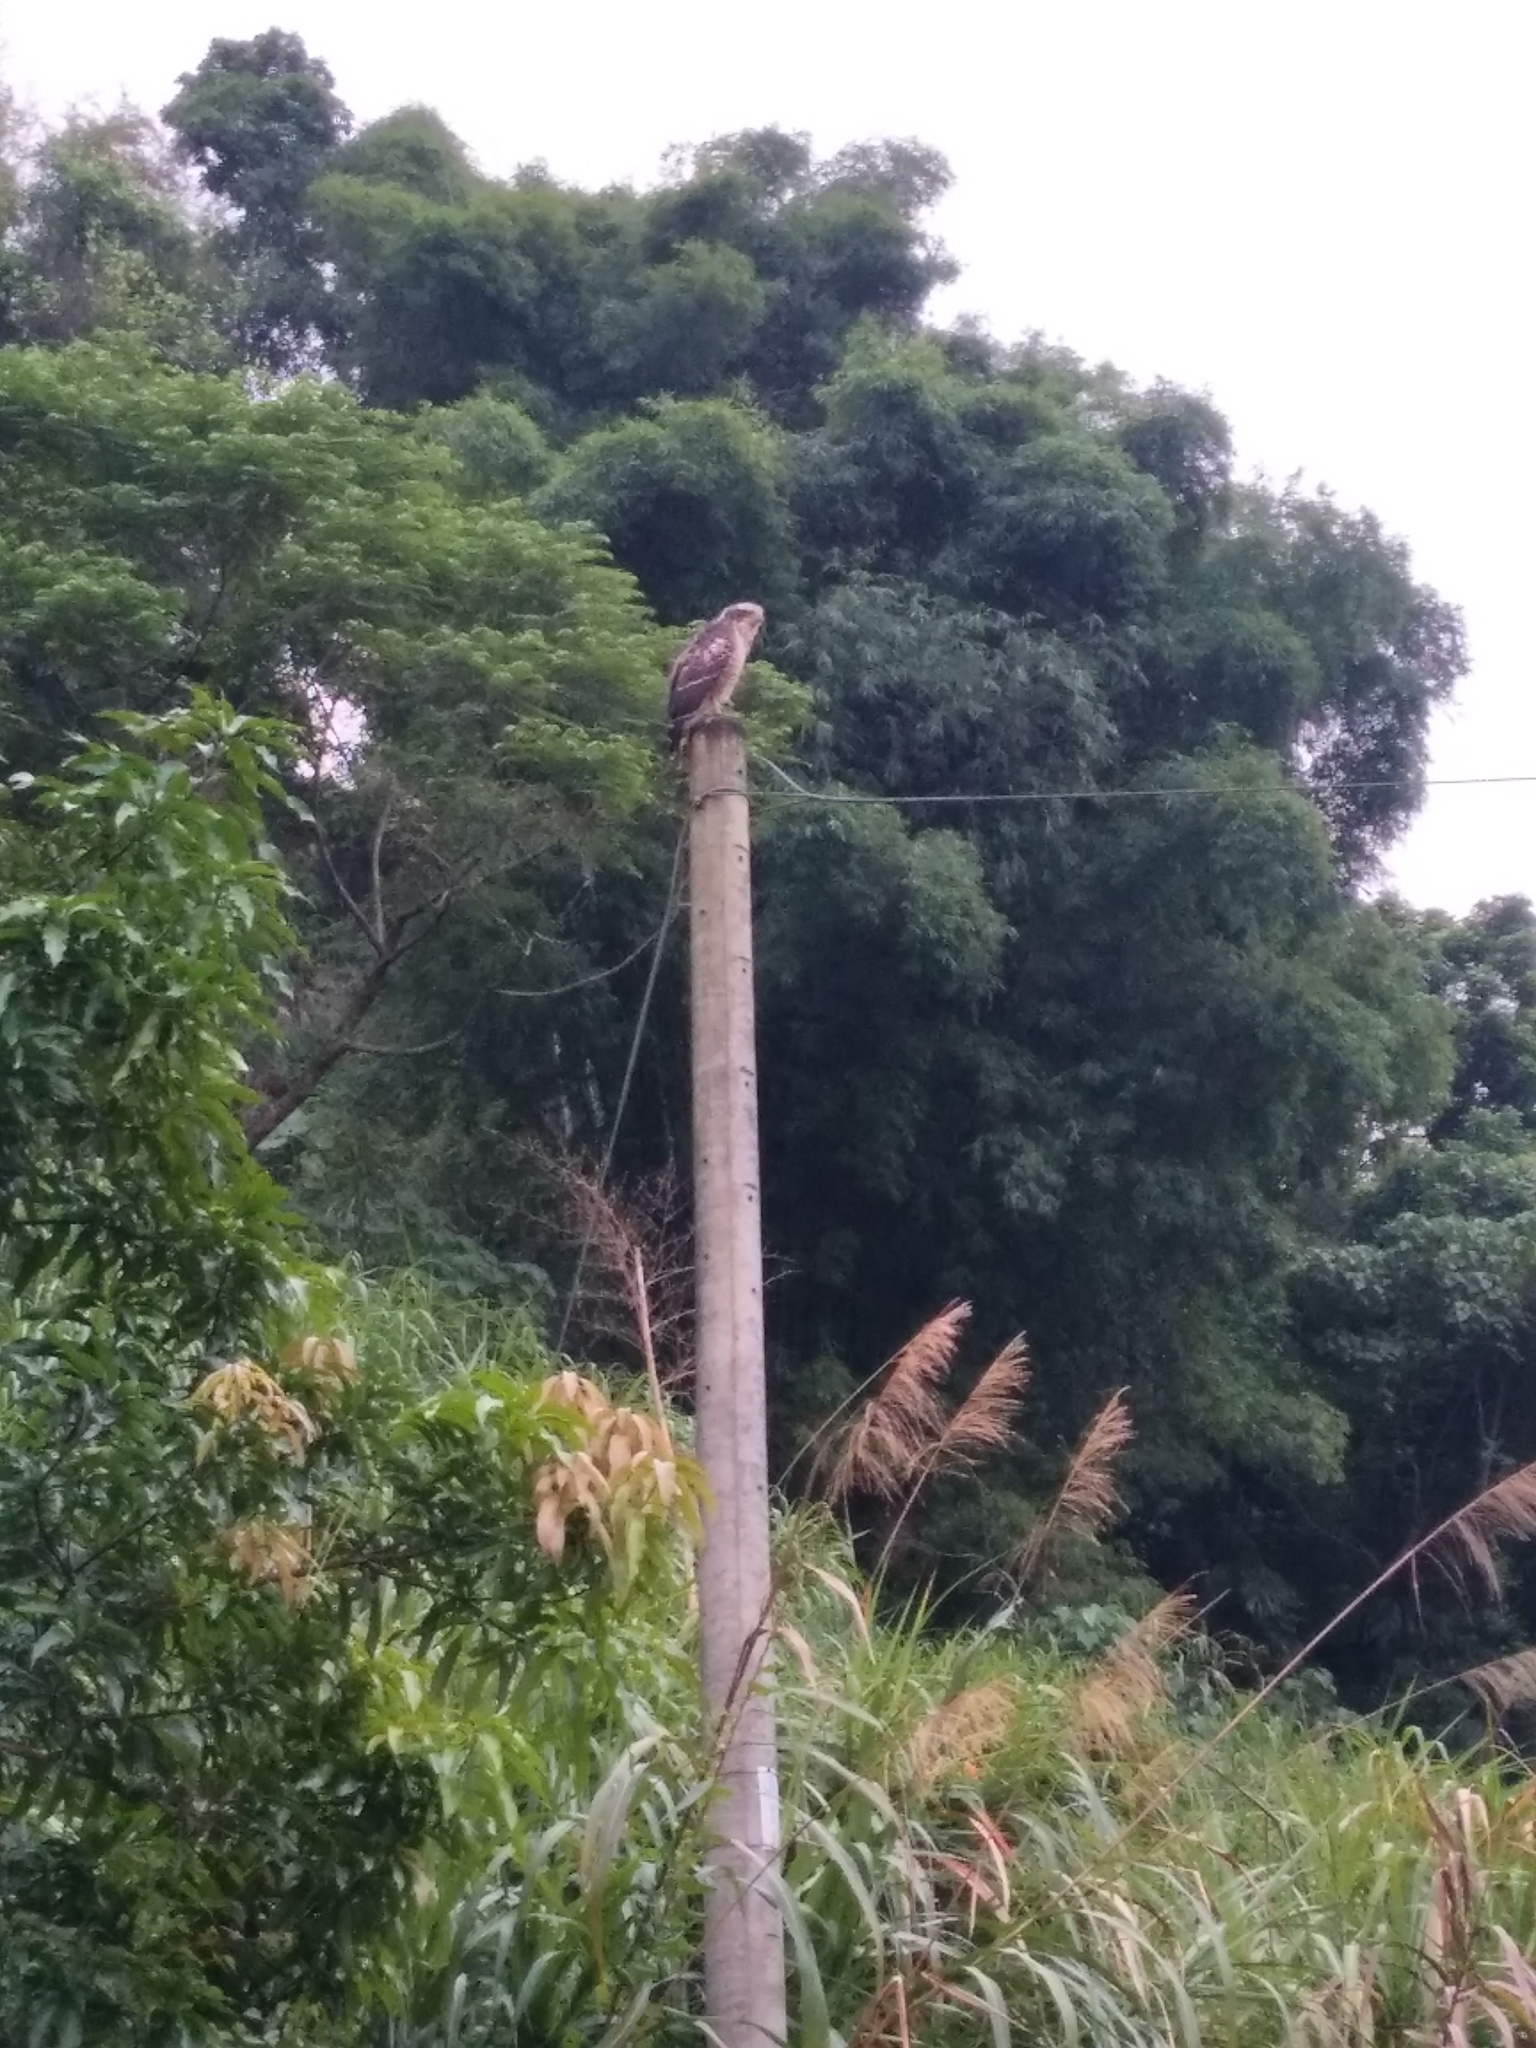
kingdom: Animalia
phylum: Chordata
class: Aves
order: Accipitriformes
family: Accipitridae
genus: Spilornis
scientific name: Spilornis cheela
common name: Crested serpent eagle
